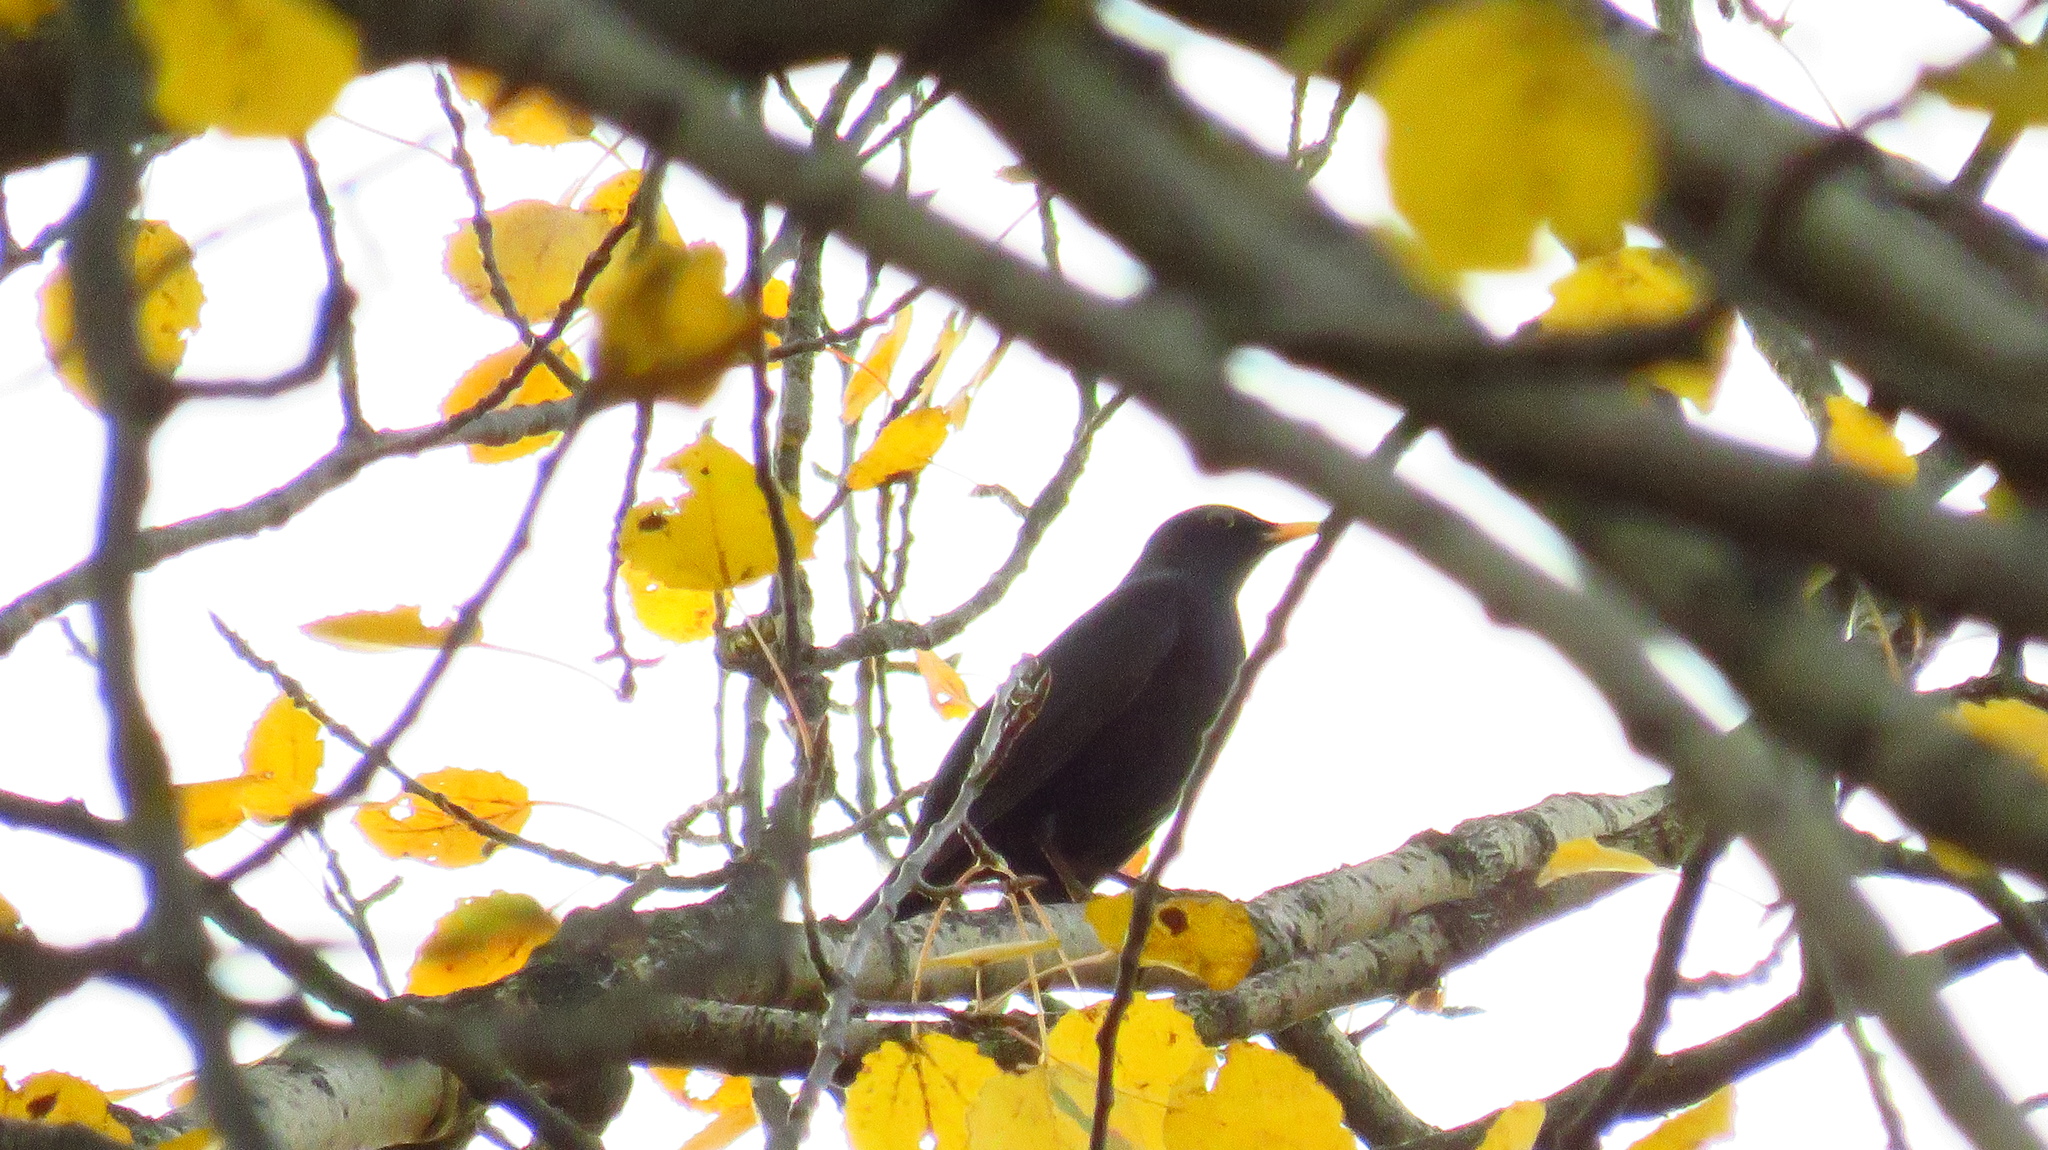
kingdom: Animalia
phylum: Chordata
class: Aves
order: Passeriformes
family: Turdidae
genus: Turdus
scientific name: Turdus merula
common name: Common blackbird
